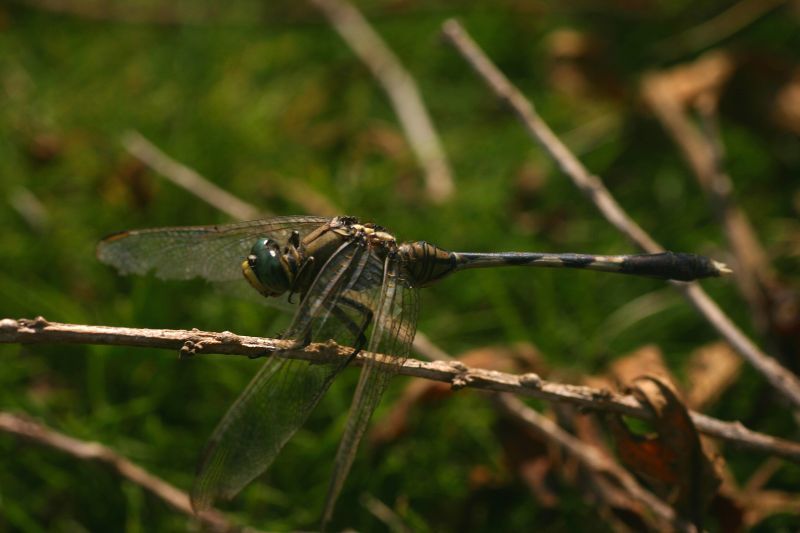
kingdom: Animalia
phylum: Arthropoda
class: Insecta
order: Odonata
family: Libellulidae
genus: Orthetrum
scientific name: Orthetrum sabina
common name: Slender skimmer
